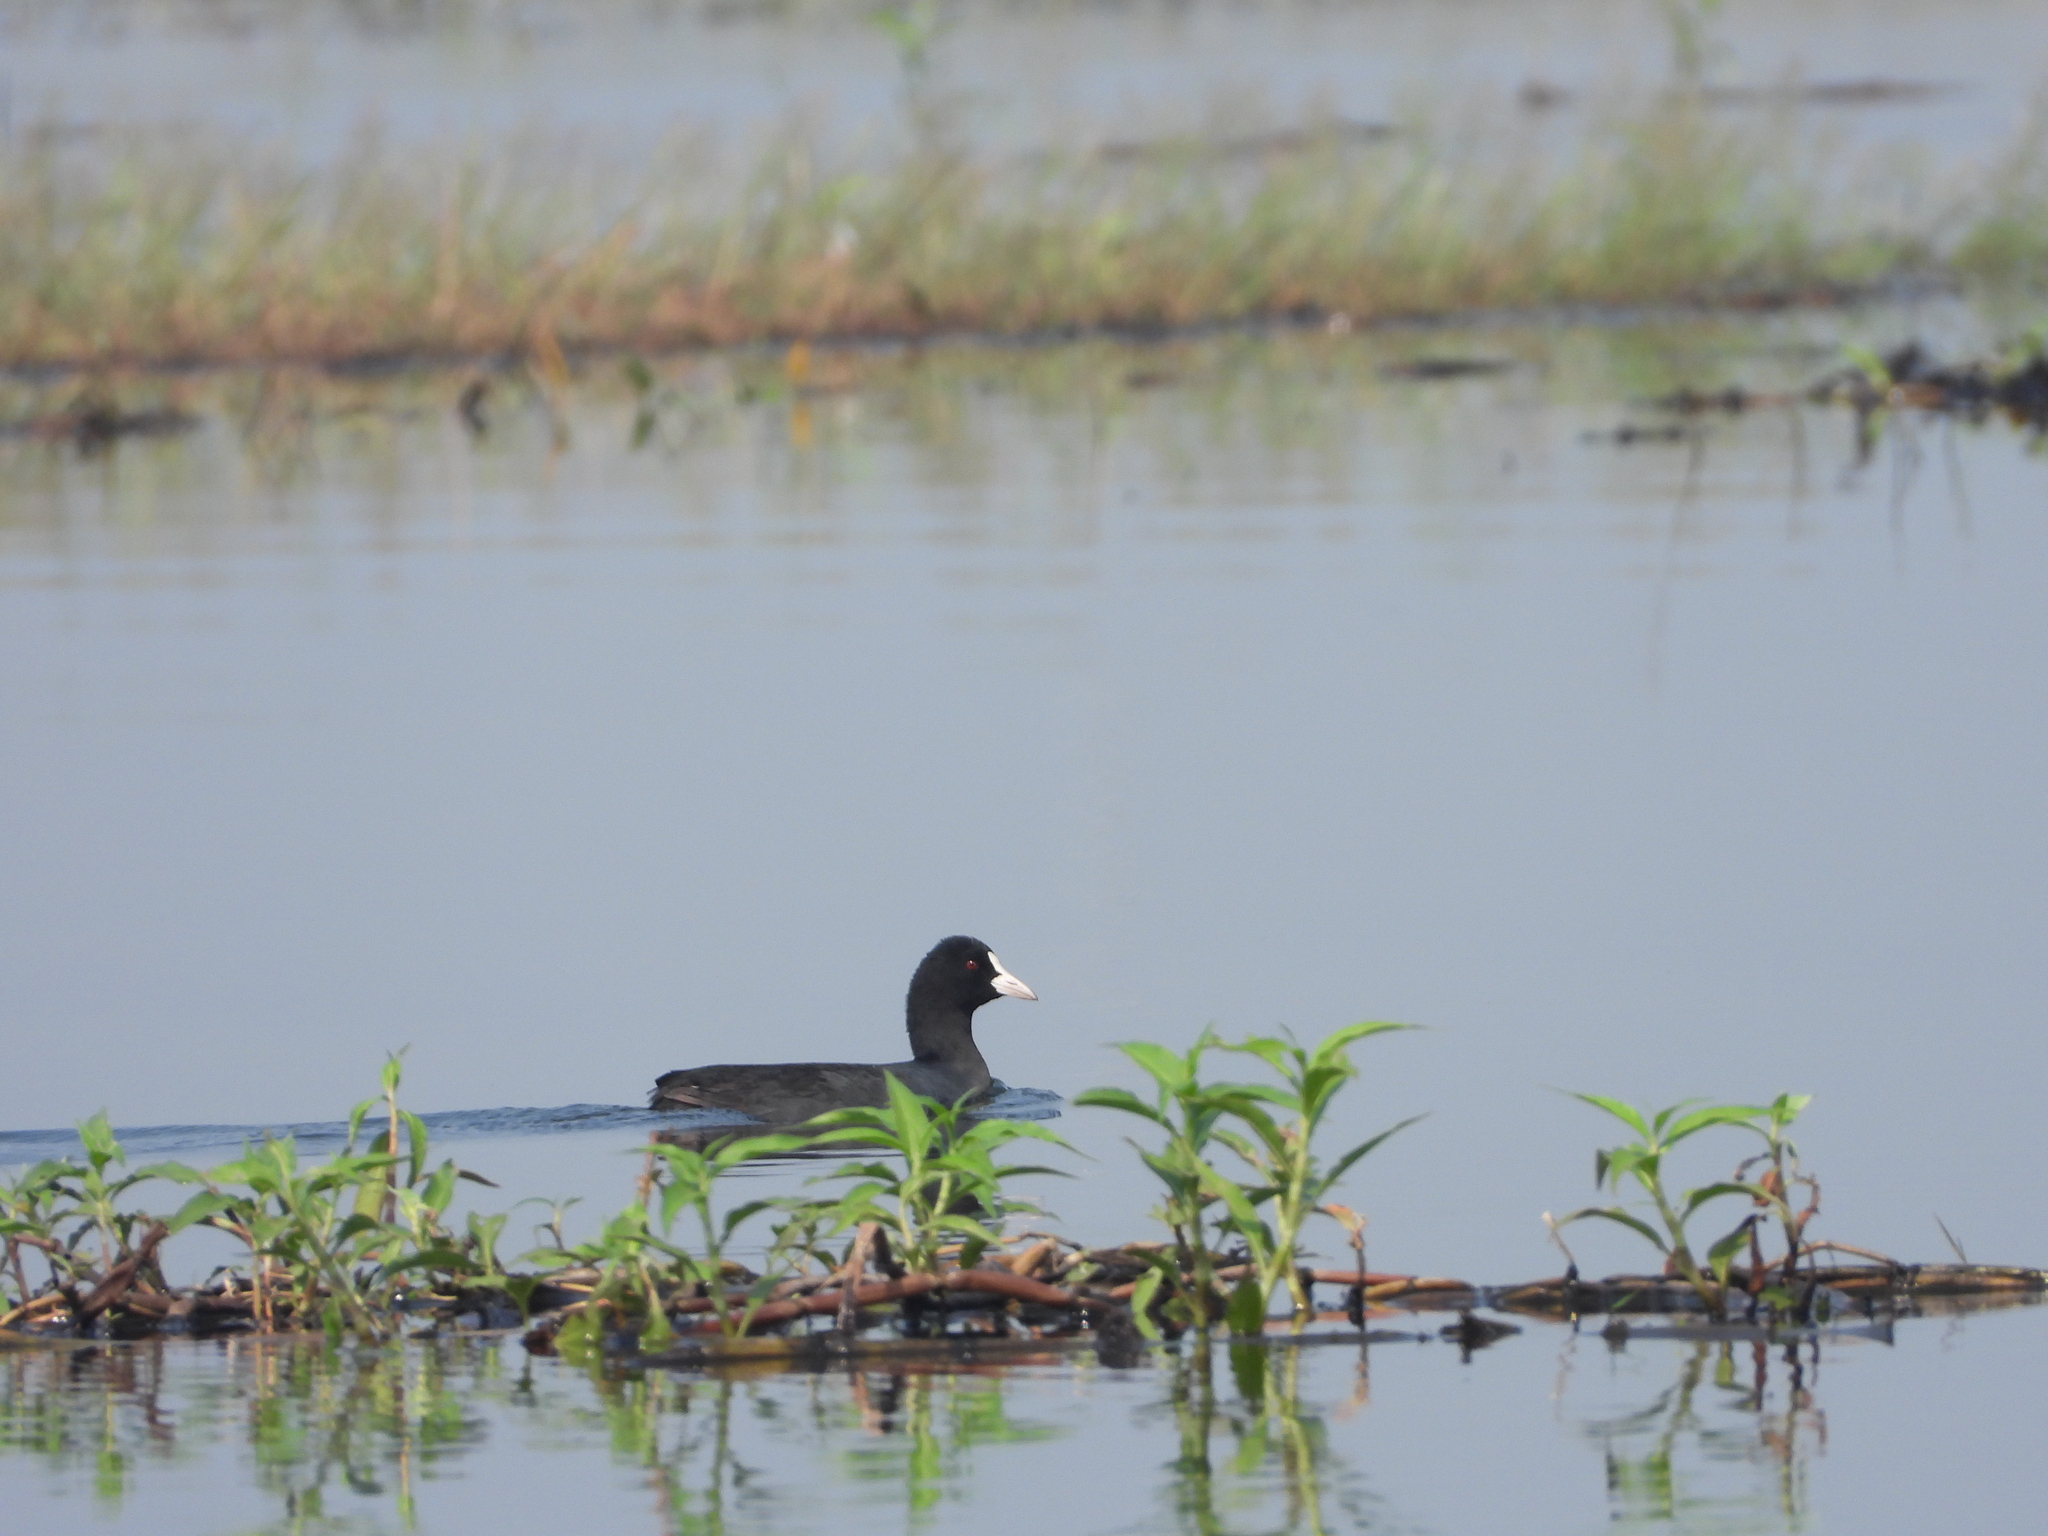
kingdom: Animalia
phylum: Chordata
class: Aves
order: Gruiformes
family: Rallidae
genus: Fulica
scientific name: Fulica atra
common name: Eurasian coot
